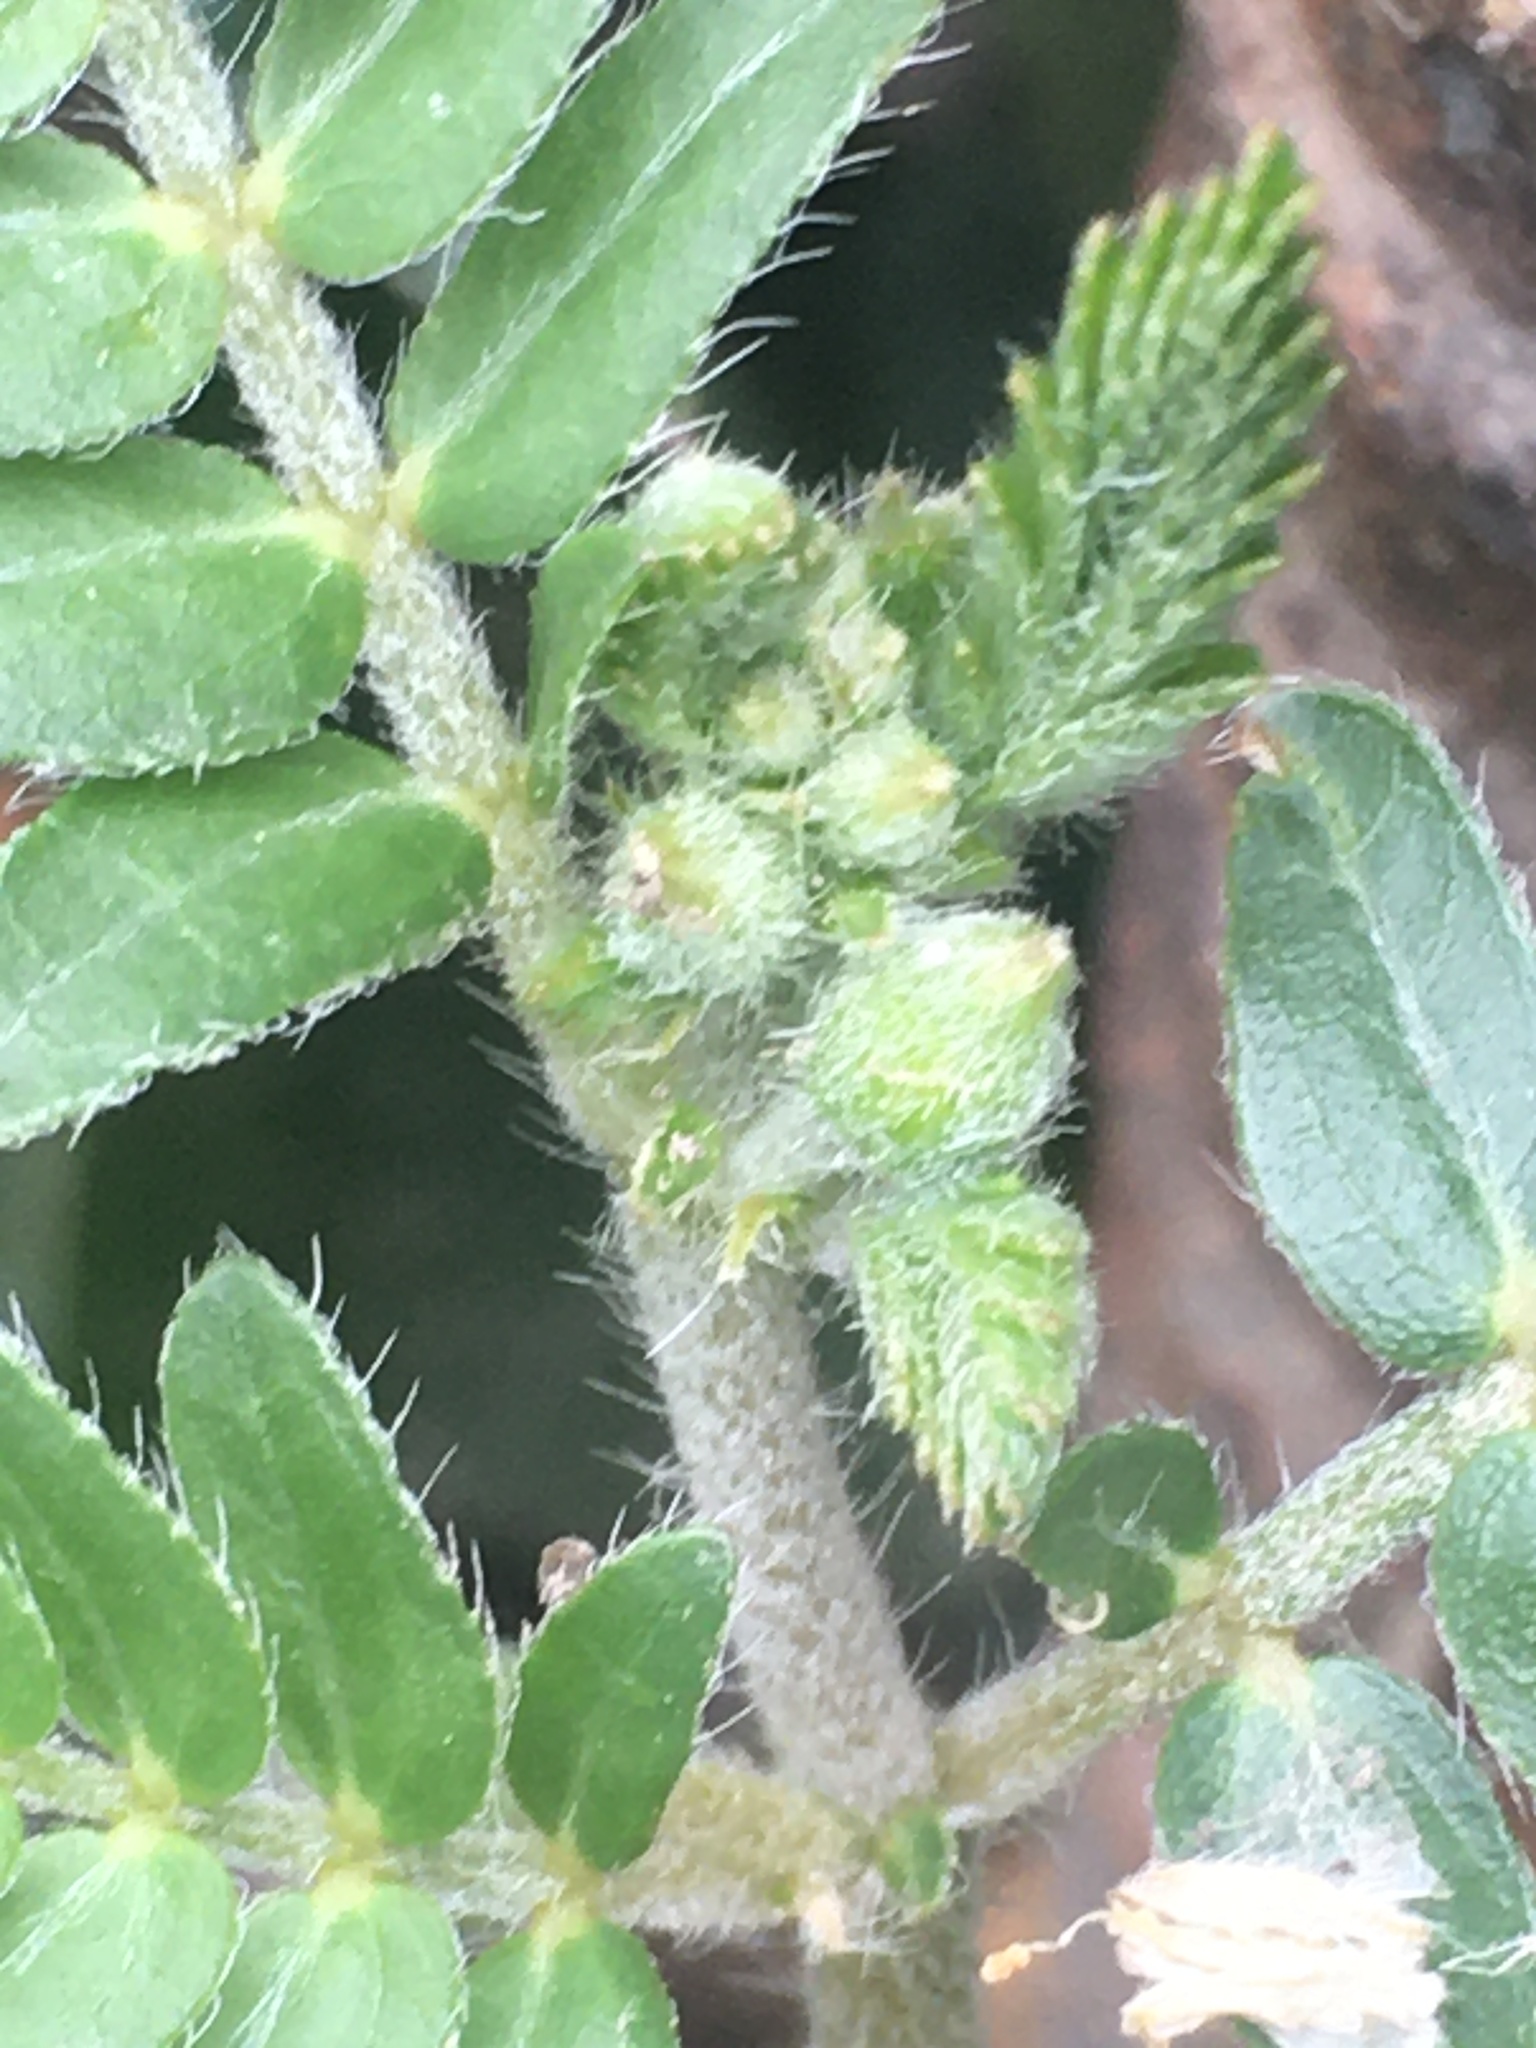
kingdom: Plantae
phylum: Tracheophyta
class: Magnoliopsida
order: Zygophyllales
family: Zygophyllaceae
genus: Tribulus
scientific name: Tribulus terrestris
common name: Puncturevine
